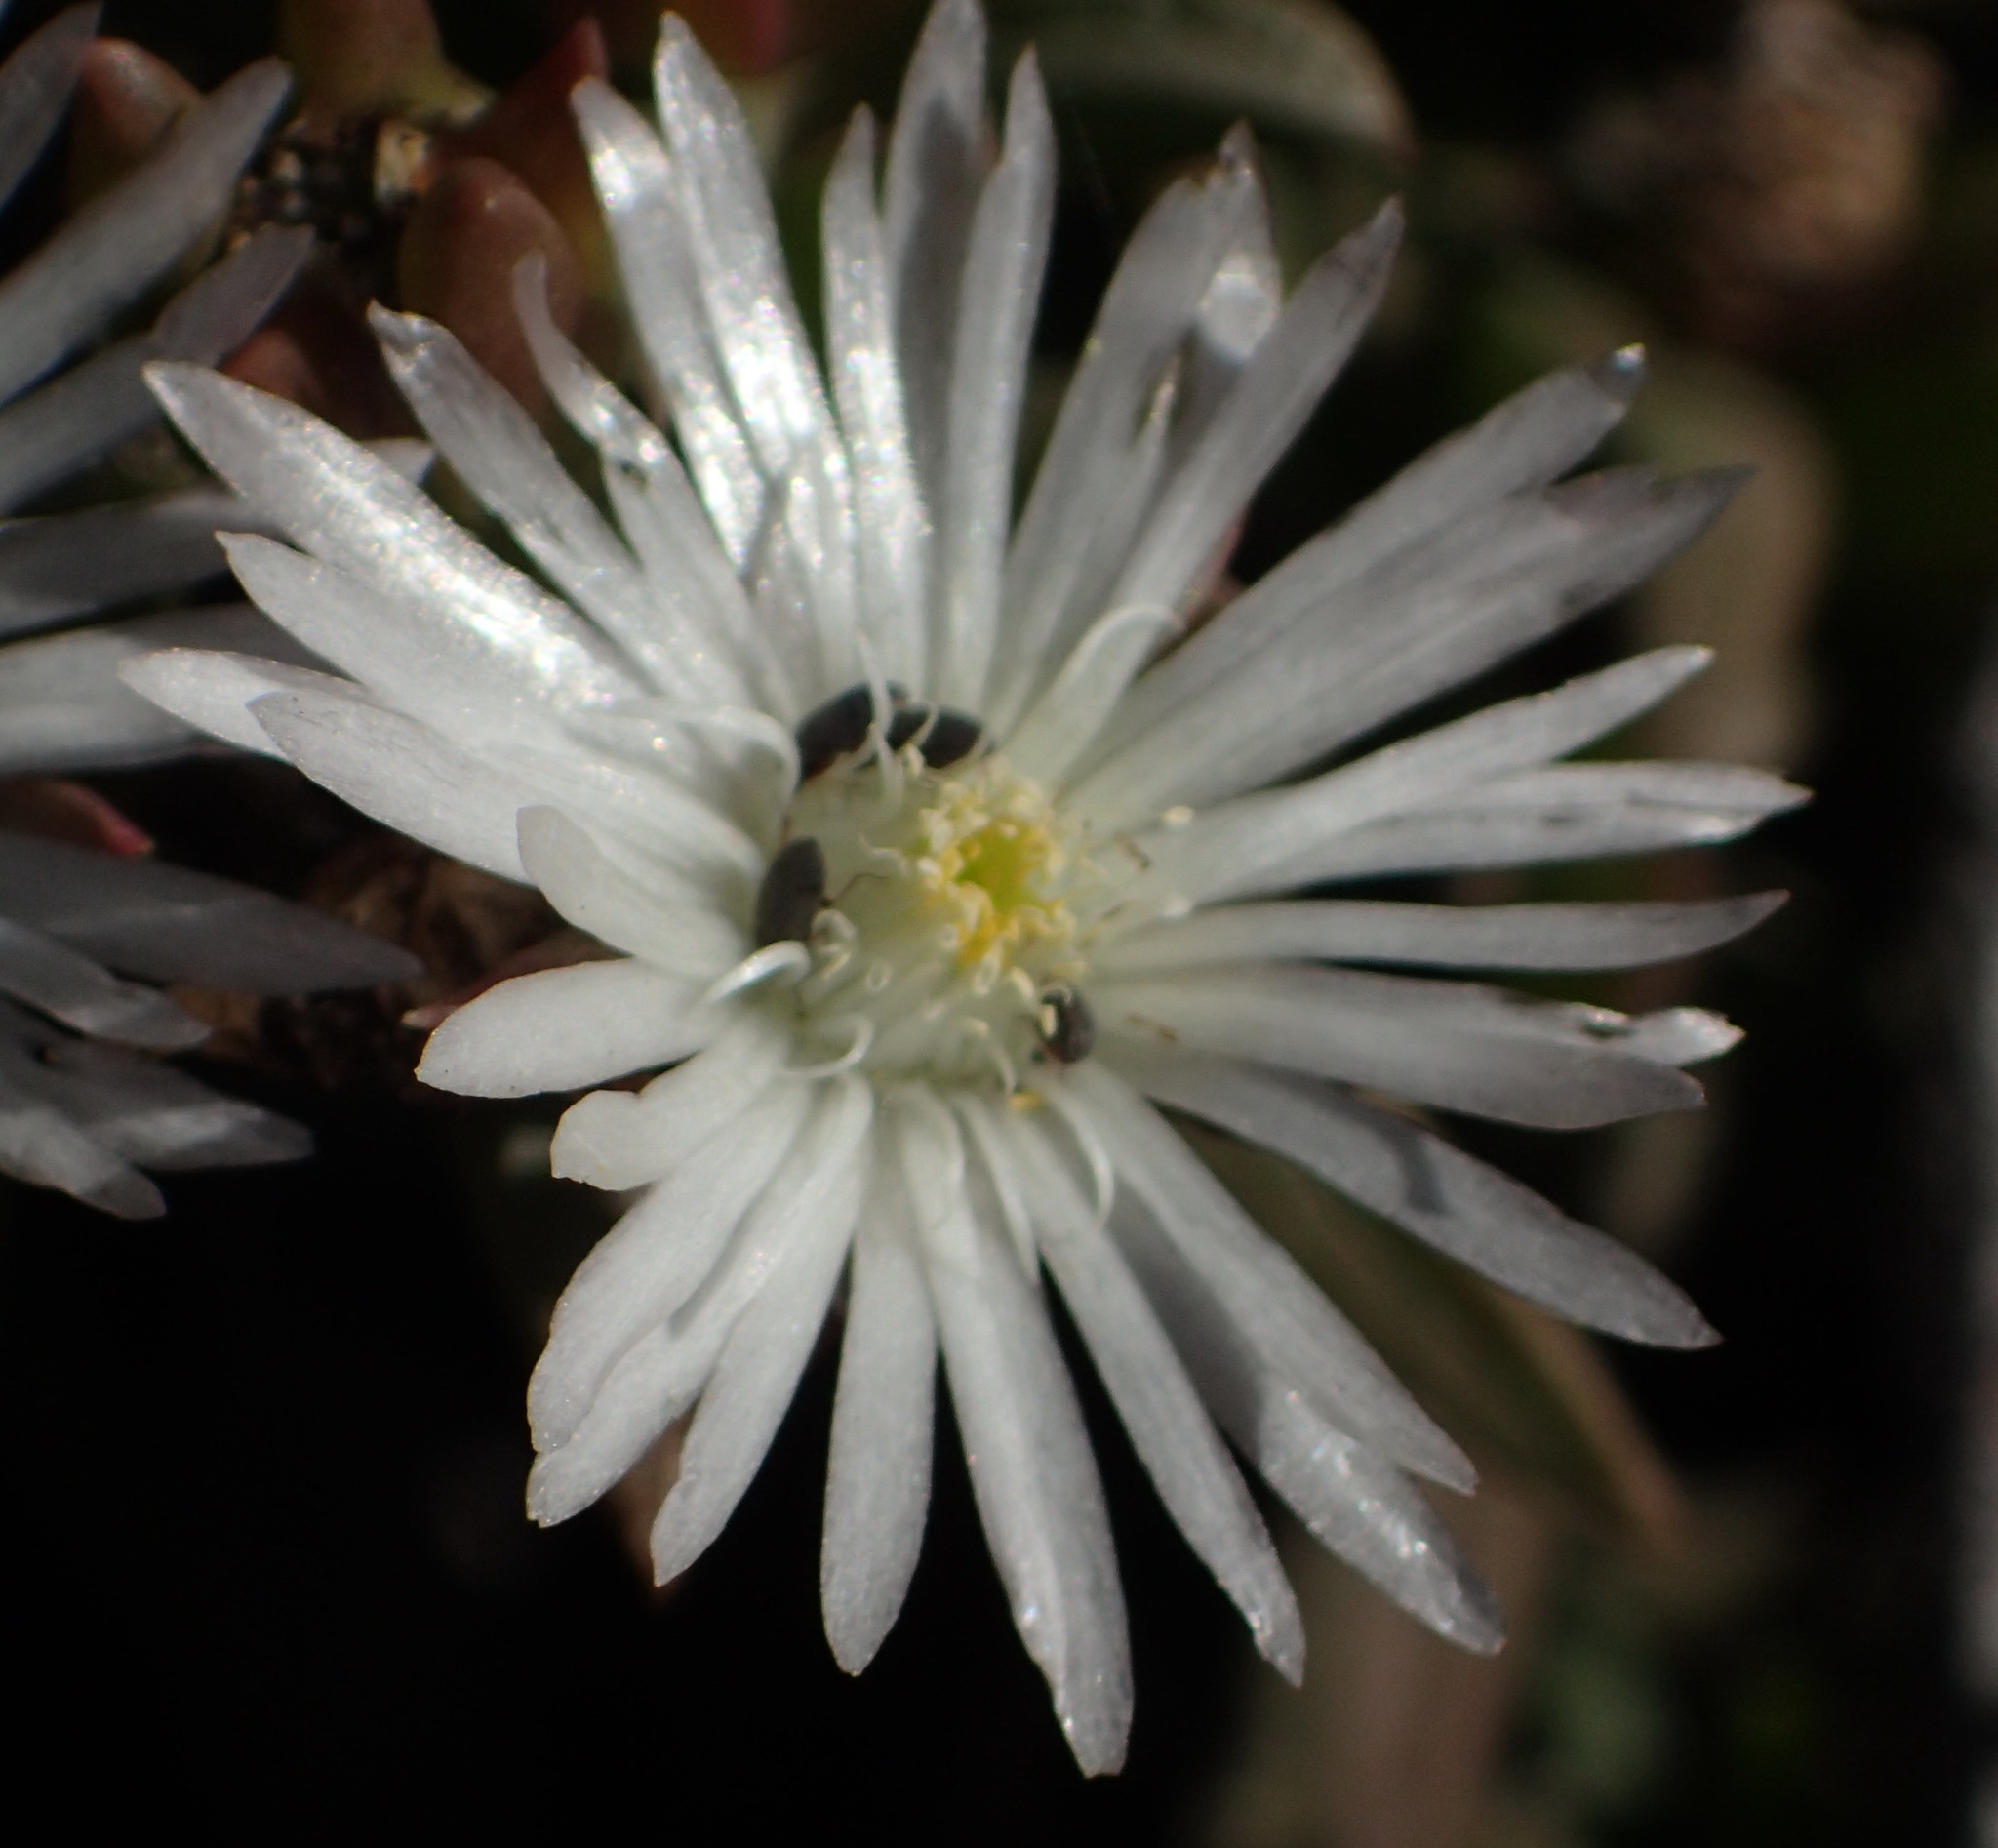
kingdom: Plantae
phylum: Tracheophyta
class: Magnoliopsida
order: Caryophyllales
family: Aizoaceae
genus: Delosperma
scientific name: Delosperma litorale
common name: Seaside delosperma
